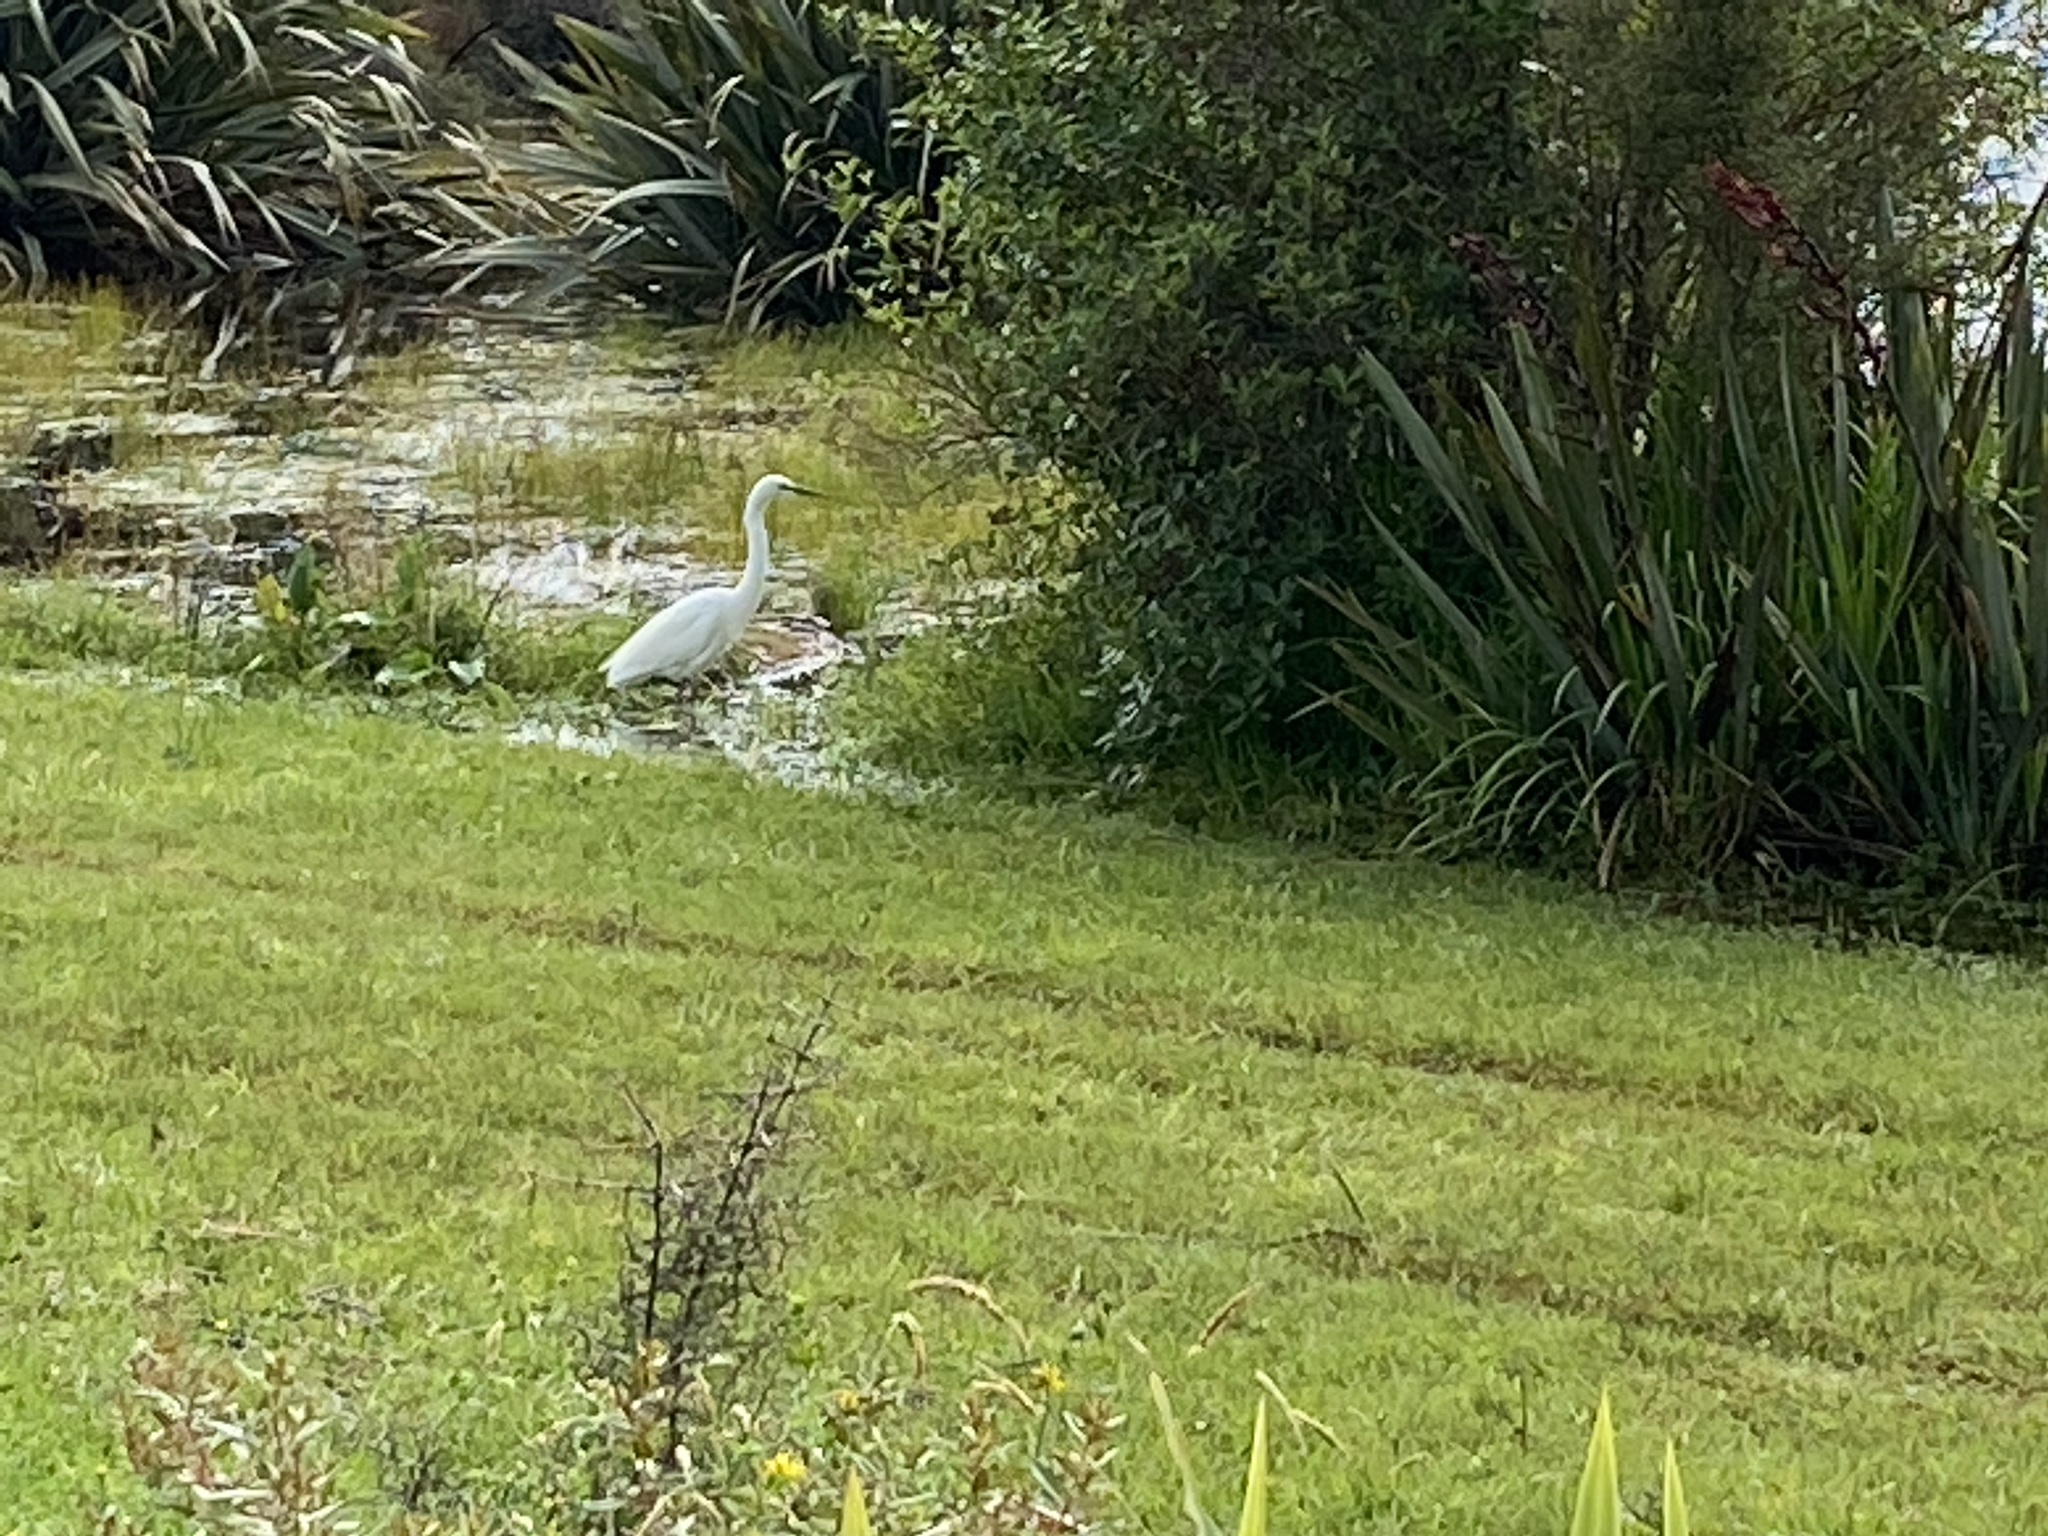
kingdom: Animalia
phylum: Chordata
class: Aves
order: Pelecaniformes
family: Ardeidae
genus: Ardea
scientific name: Ardea modesta
